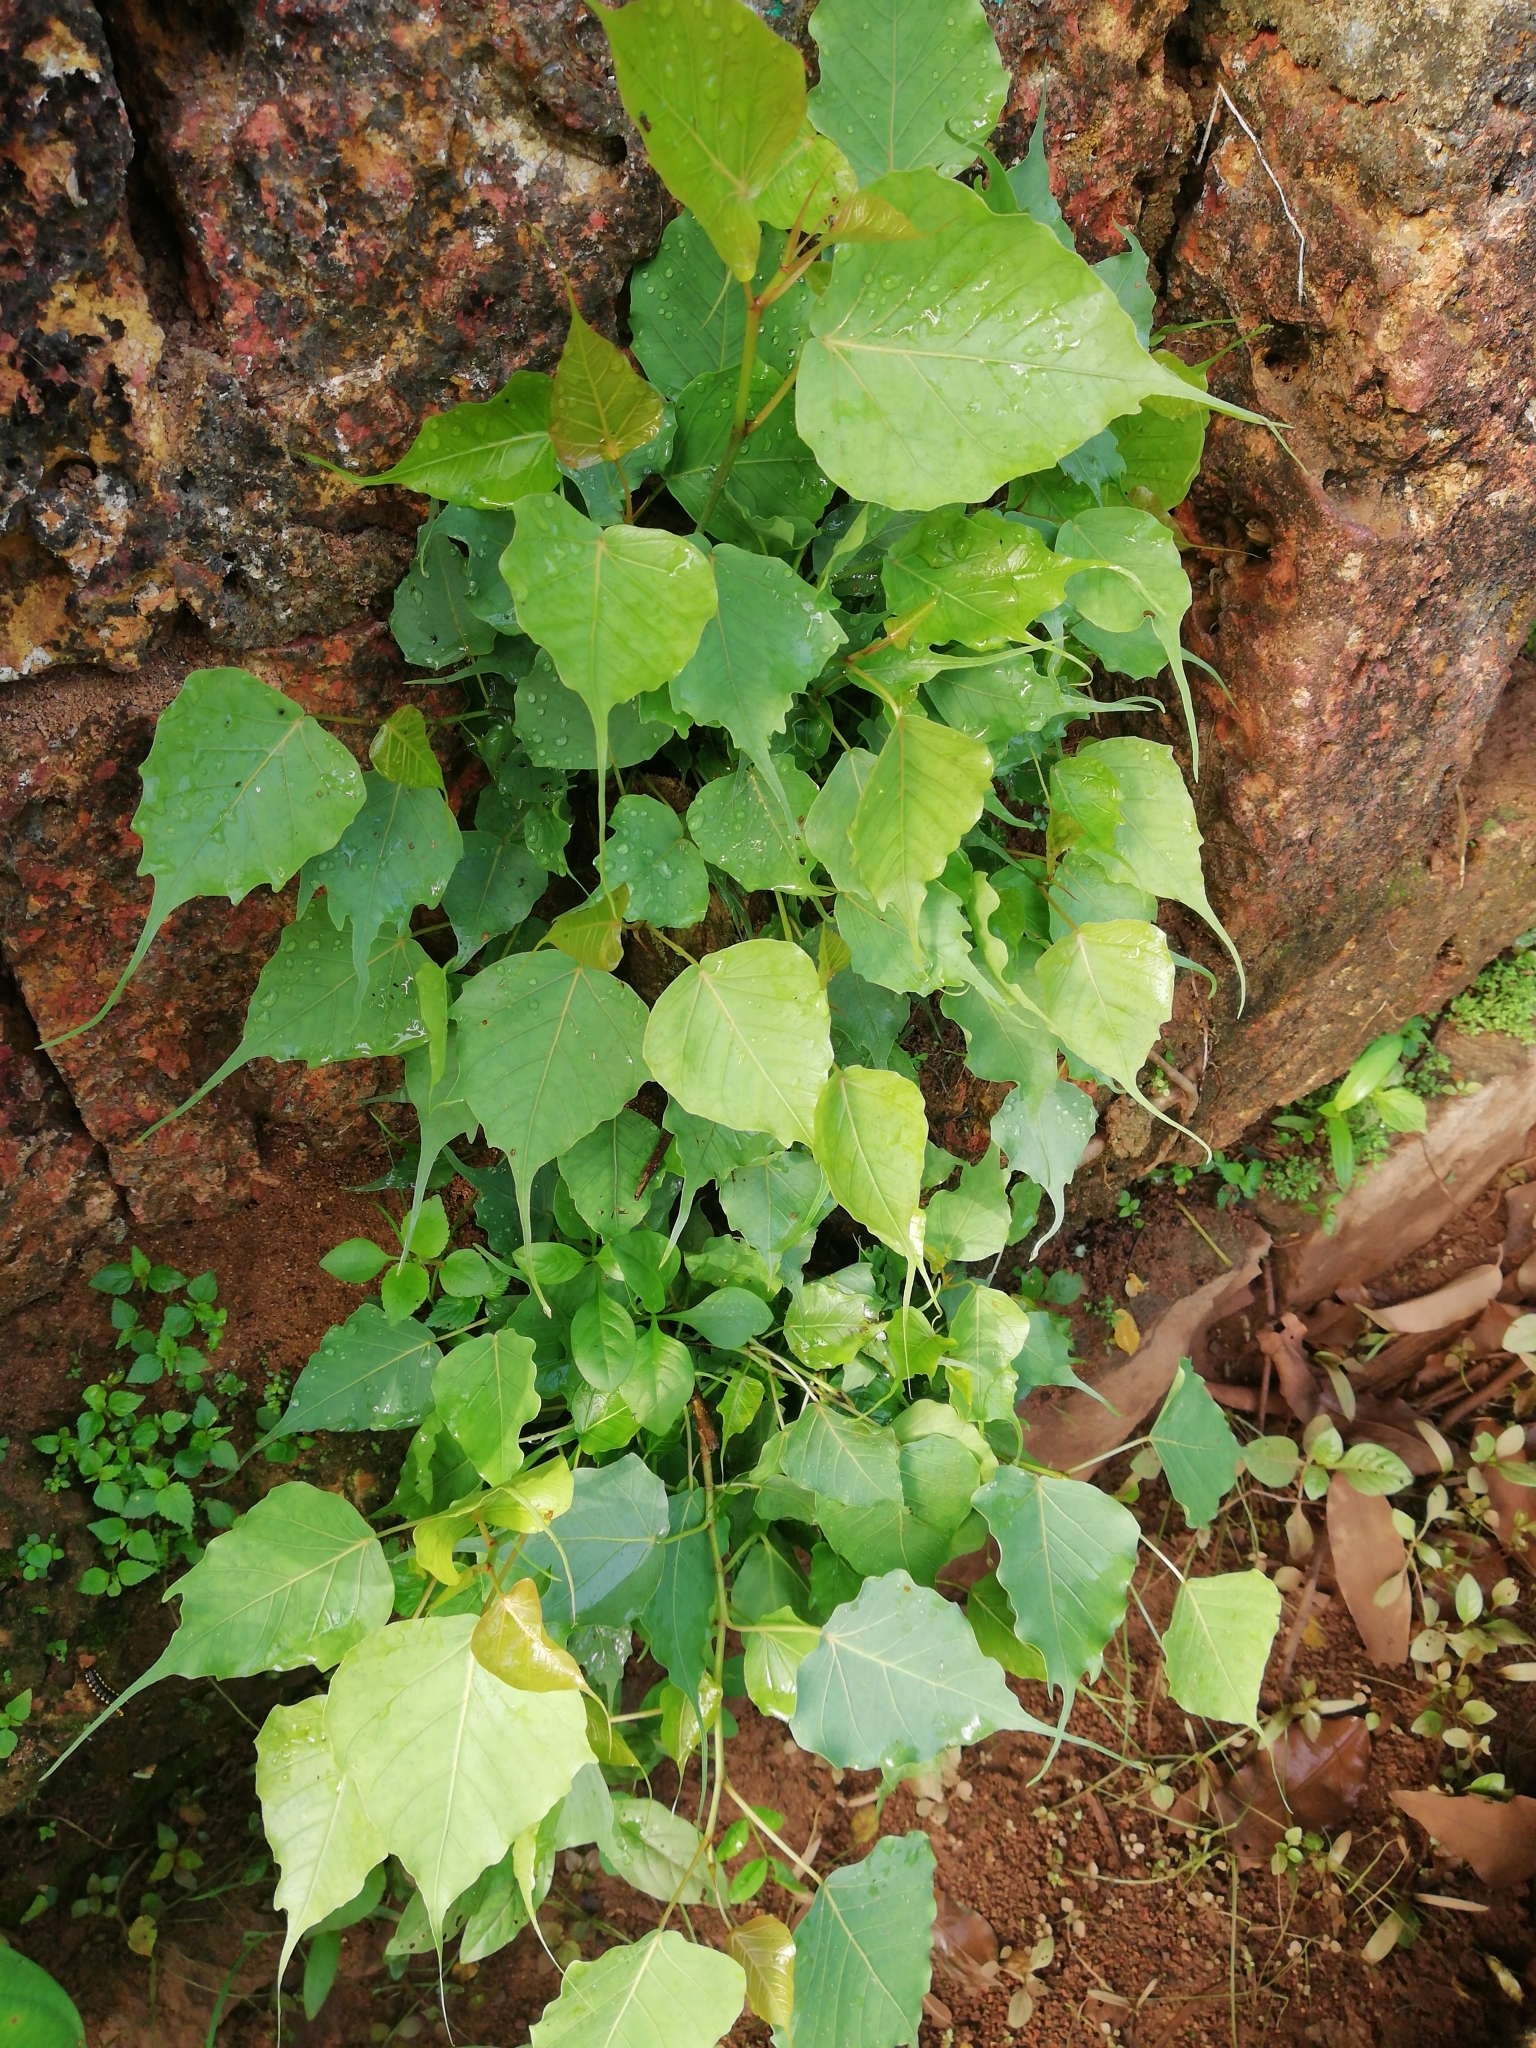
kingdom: Plantae
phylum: Tracheophyta
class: Magnoliopsida
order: Rosales
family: Moraceae
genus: Ficus
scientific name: Ficus religiosa
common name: Bodhi tree
